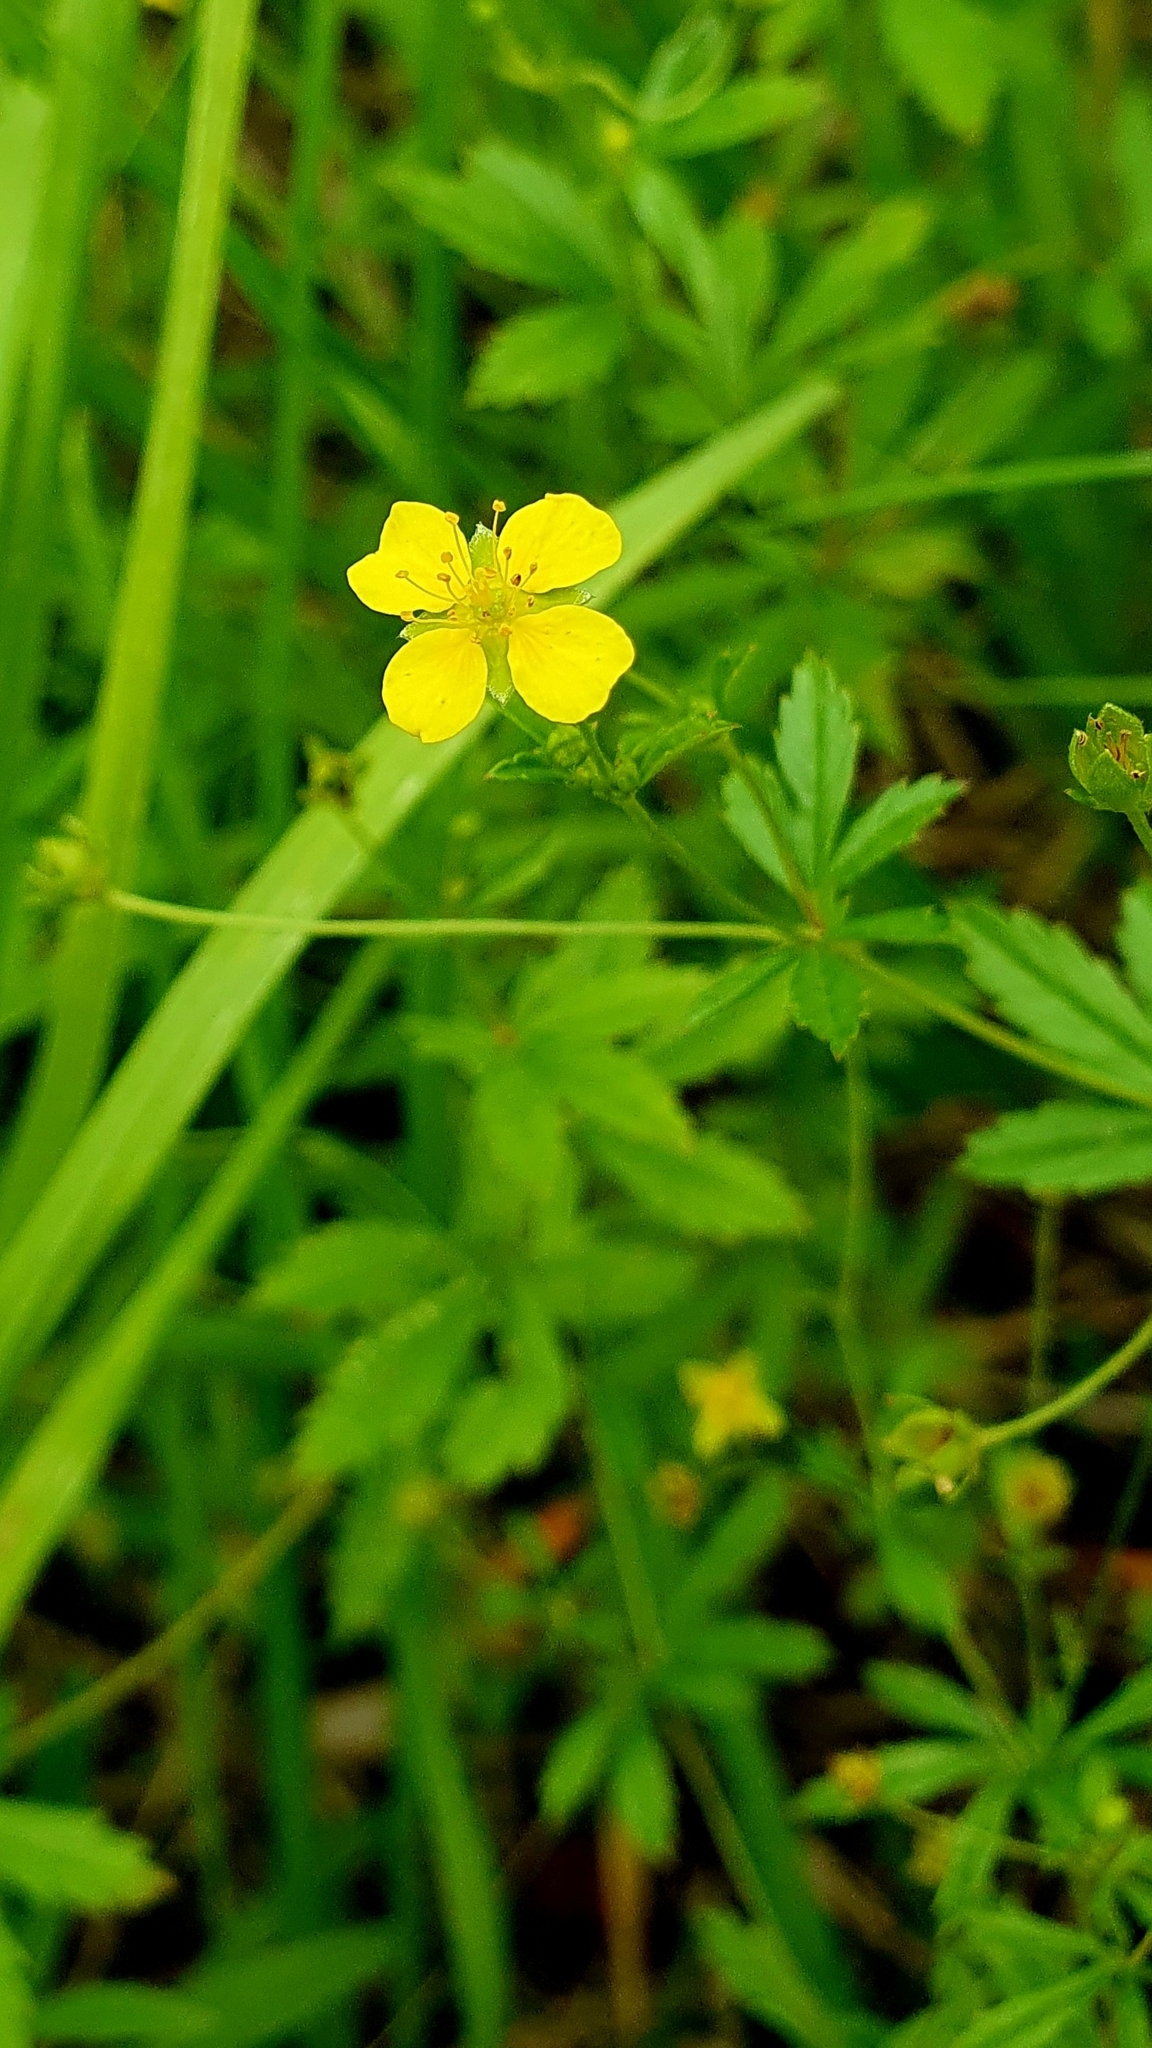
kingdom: Plantae
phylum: Tracheophyta
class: Magnoliopsida
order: Rosales
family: Rosaceae
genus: Potentilla
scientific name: Potentilla erecta
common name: Tormentil
